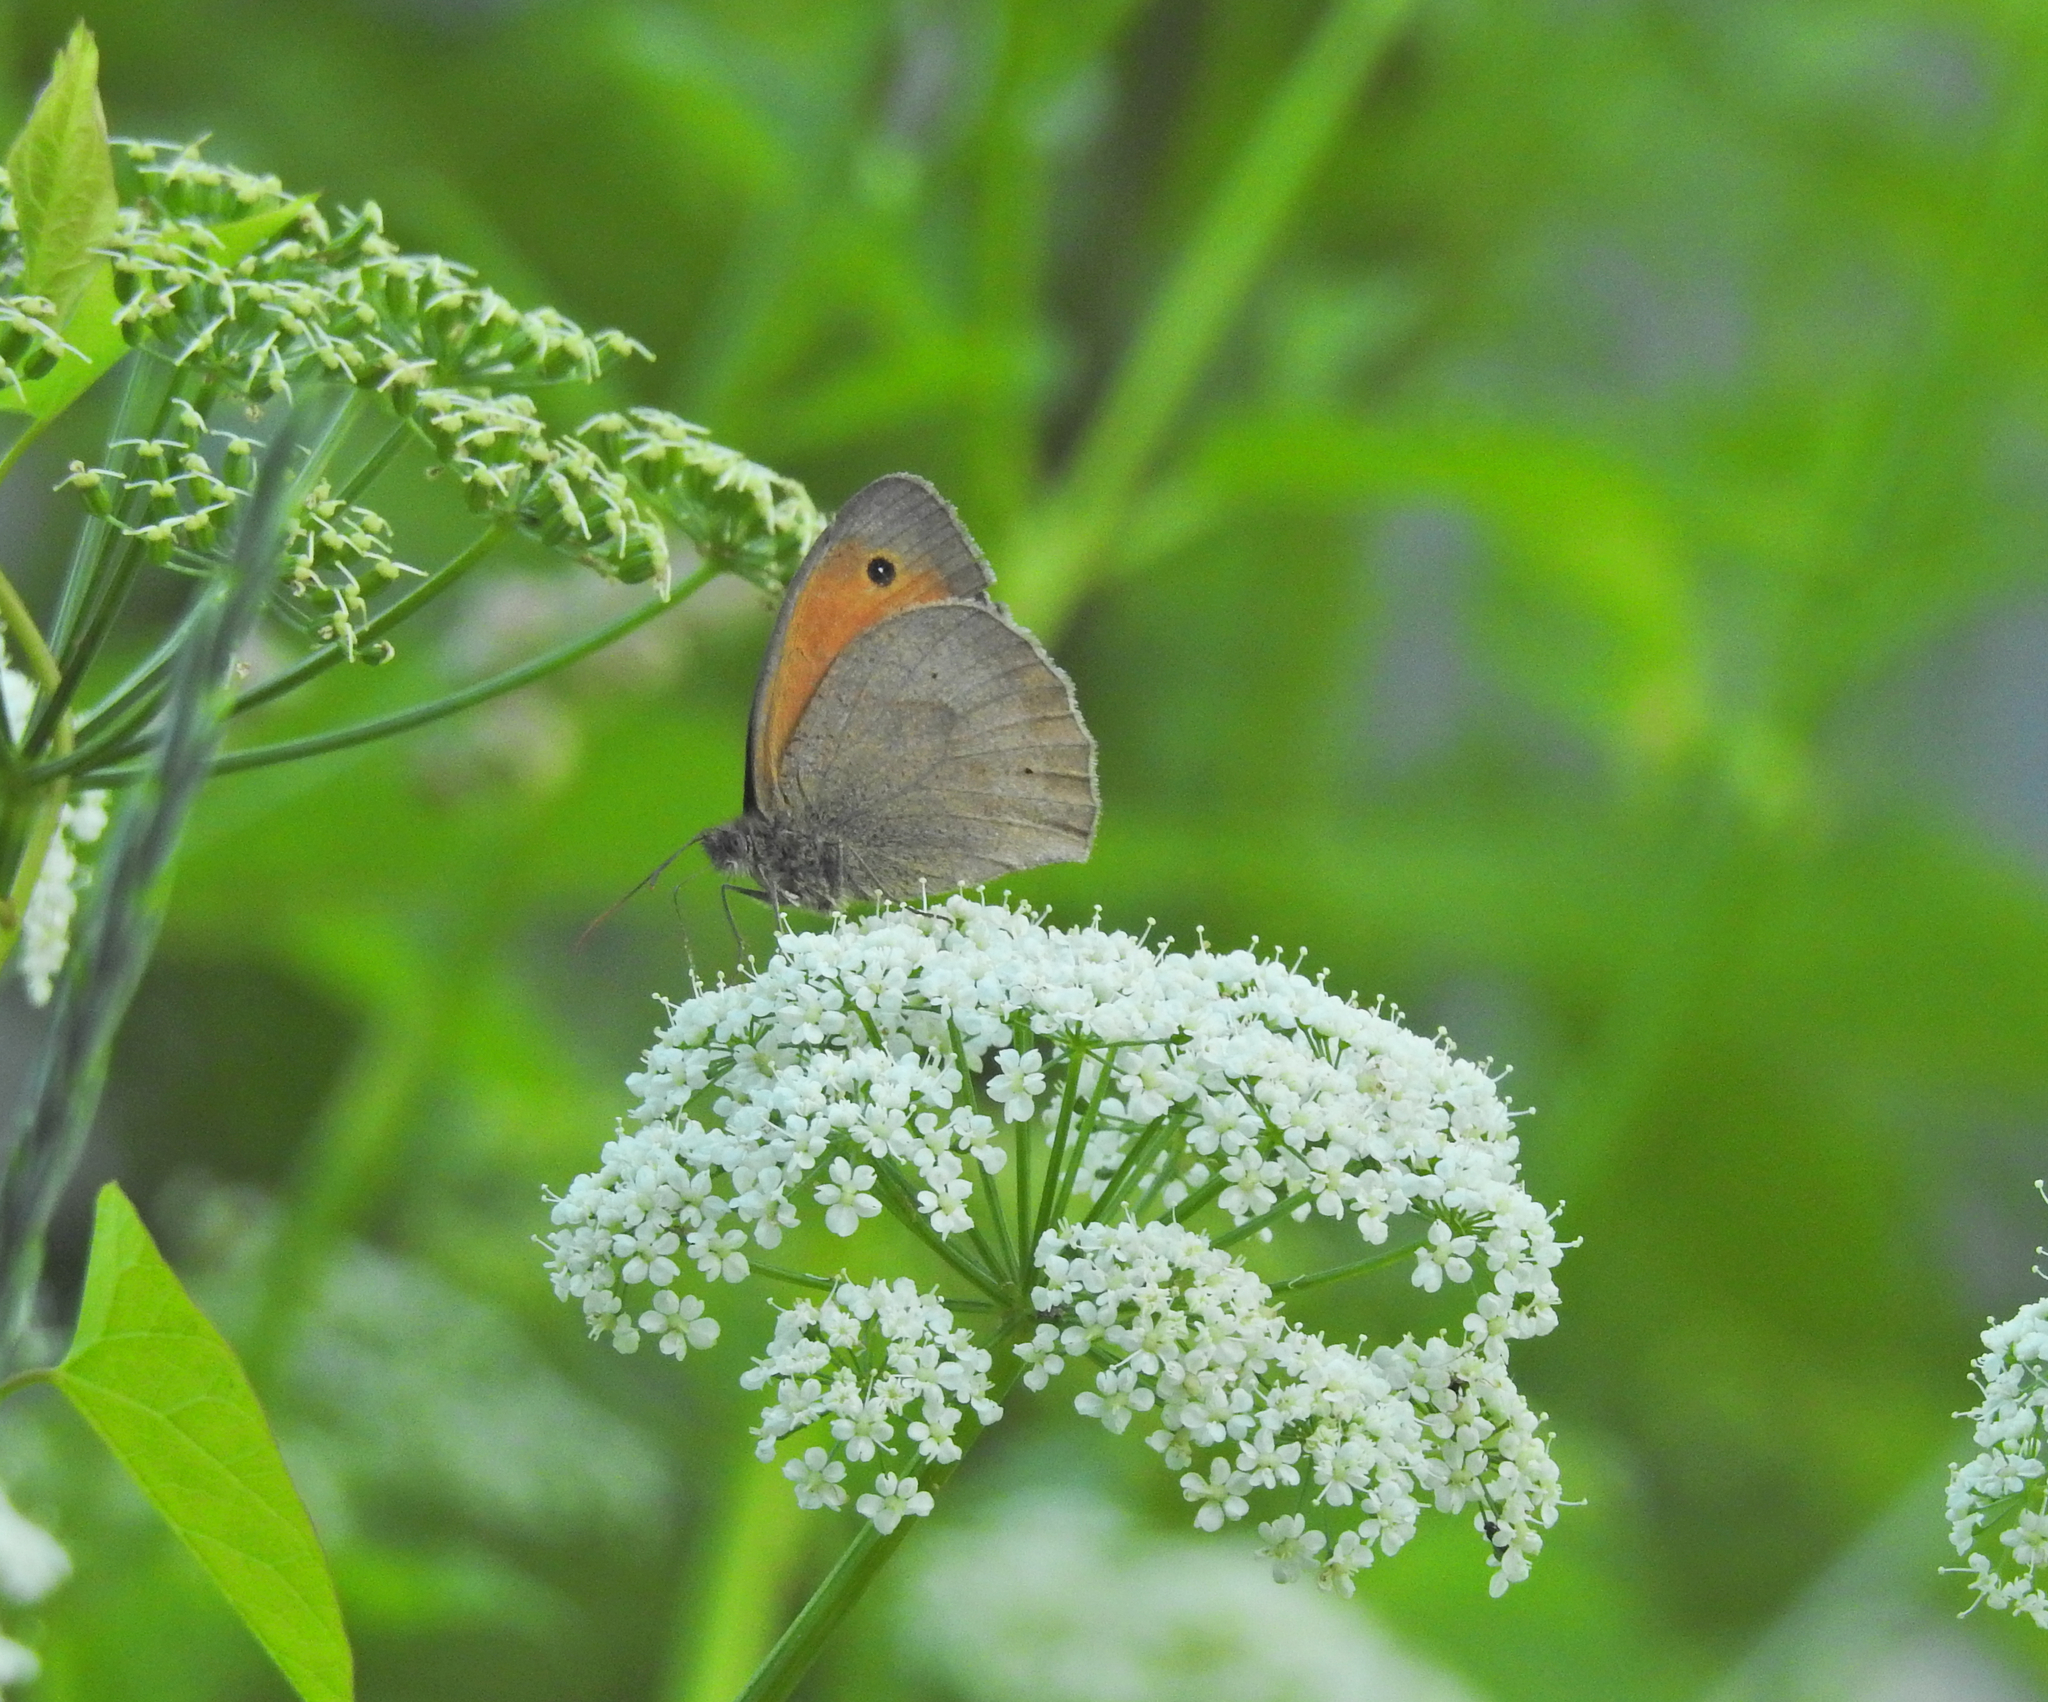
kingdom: Animalia
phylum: Arthropoda
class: Insecta
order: Lepidoptera
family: Nymphalidae
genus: Maniola
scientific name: Maniola jurtina
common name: Meadow brown
